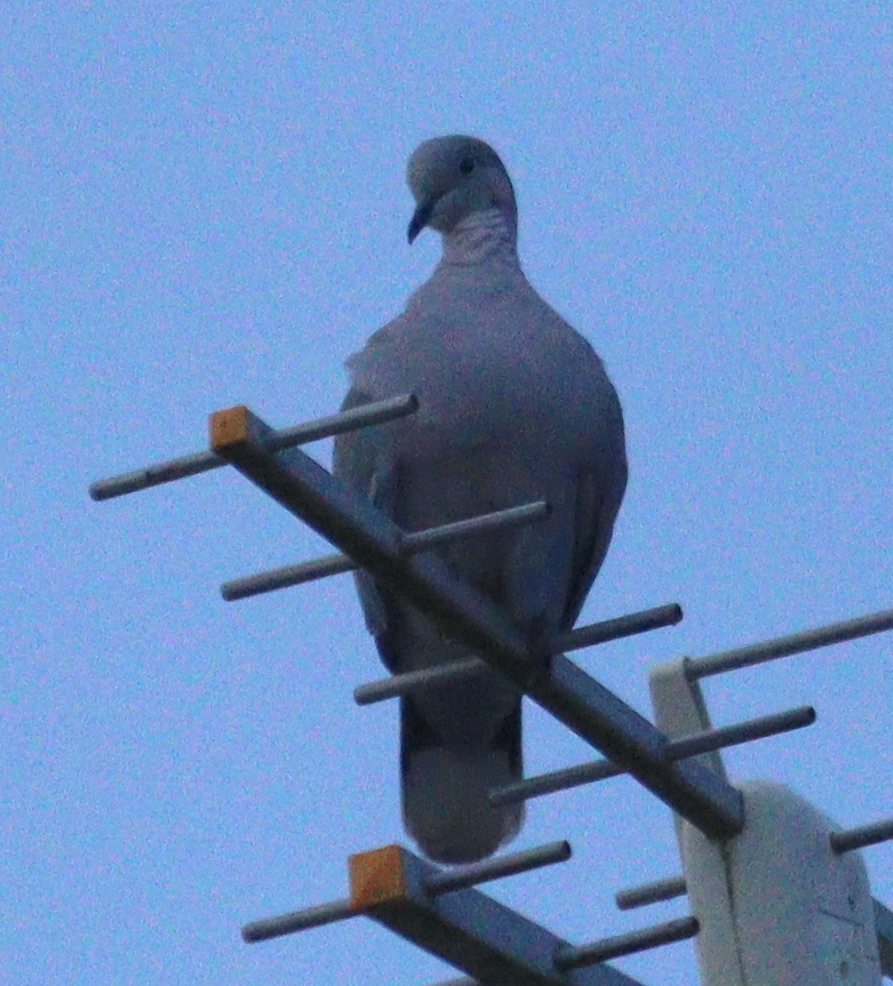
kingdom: Animalia
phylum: Chordata
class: Aves
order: Columbiformes
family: Columbidae
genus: Streptopelia
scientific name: Streptopelia decaocto
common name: Eurasian collared dove
